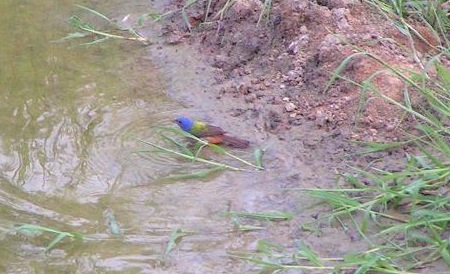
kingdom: Animalia
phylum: Chordata
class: Aves
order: Passeriformes
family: Cardinalidae
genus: Passerina
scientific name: Passerina ciris
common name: Painted bunting
